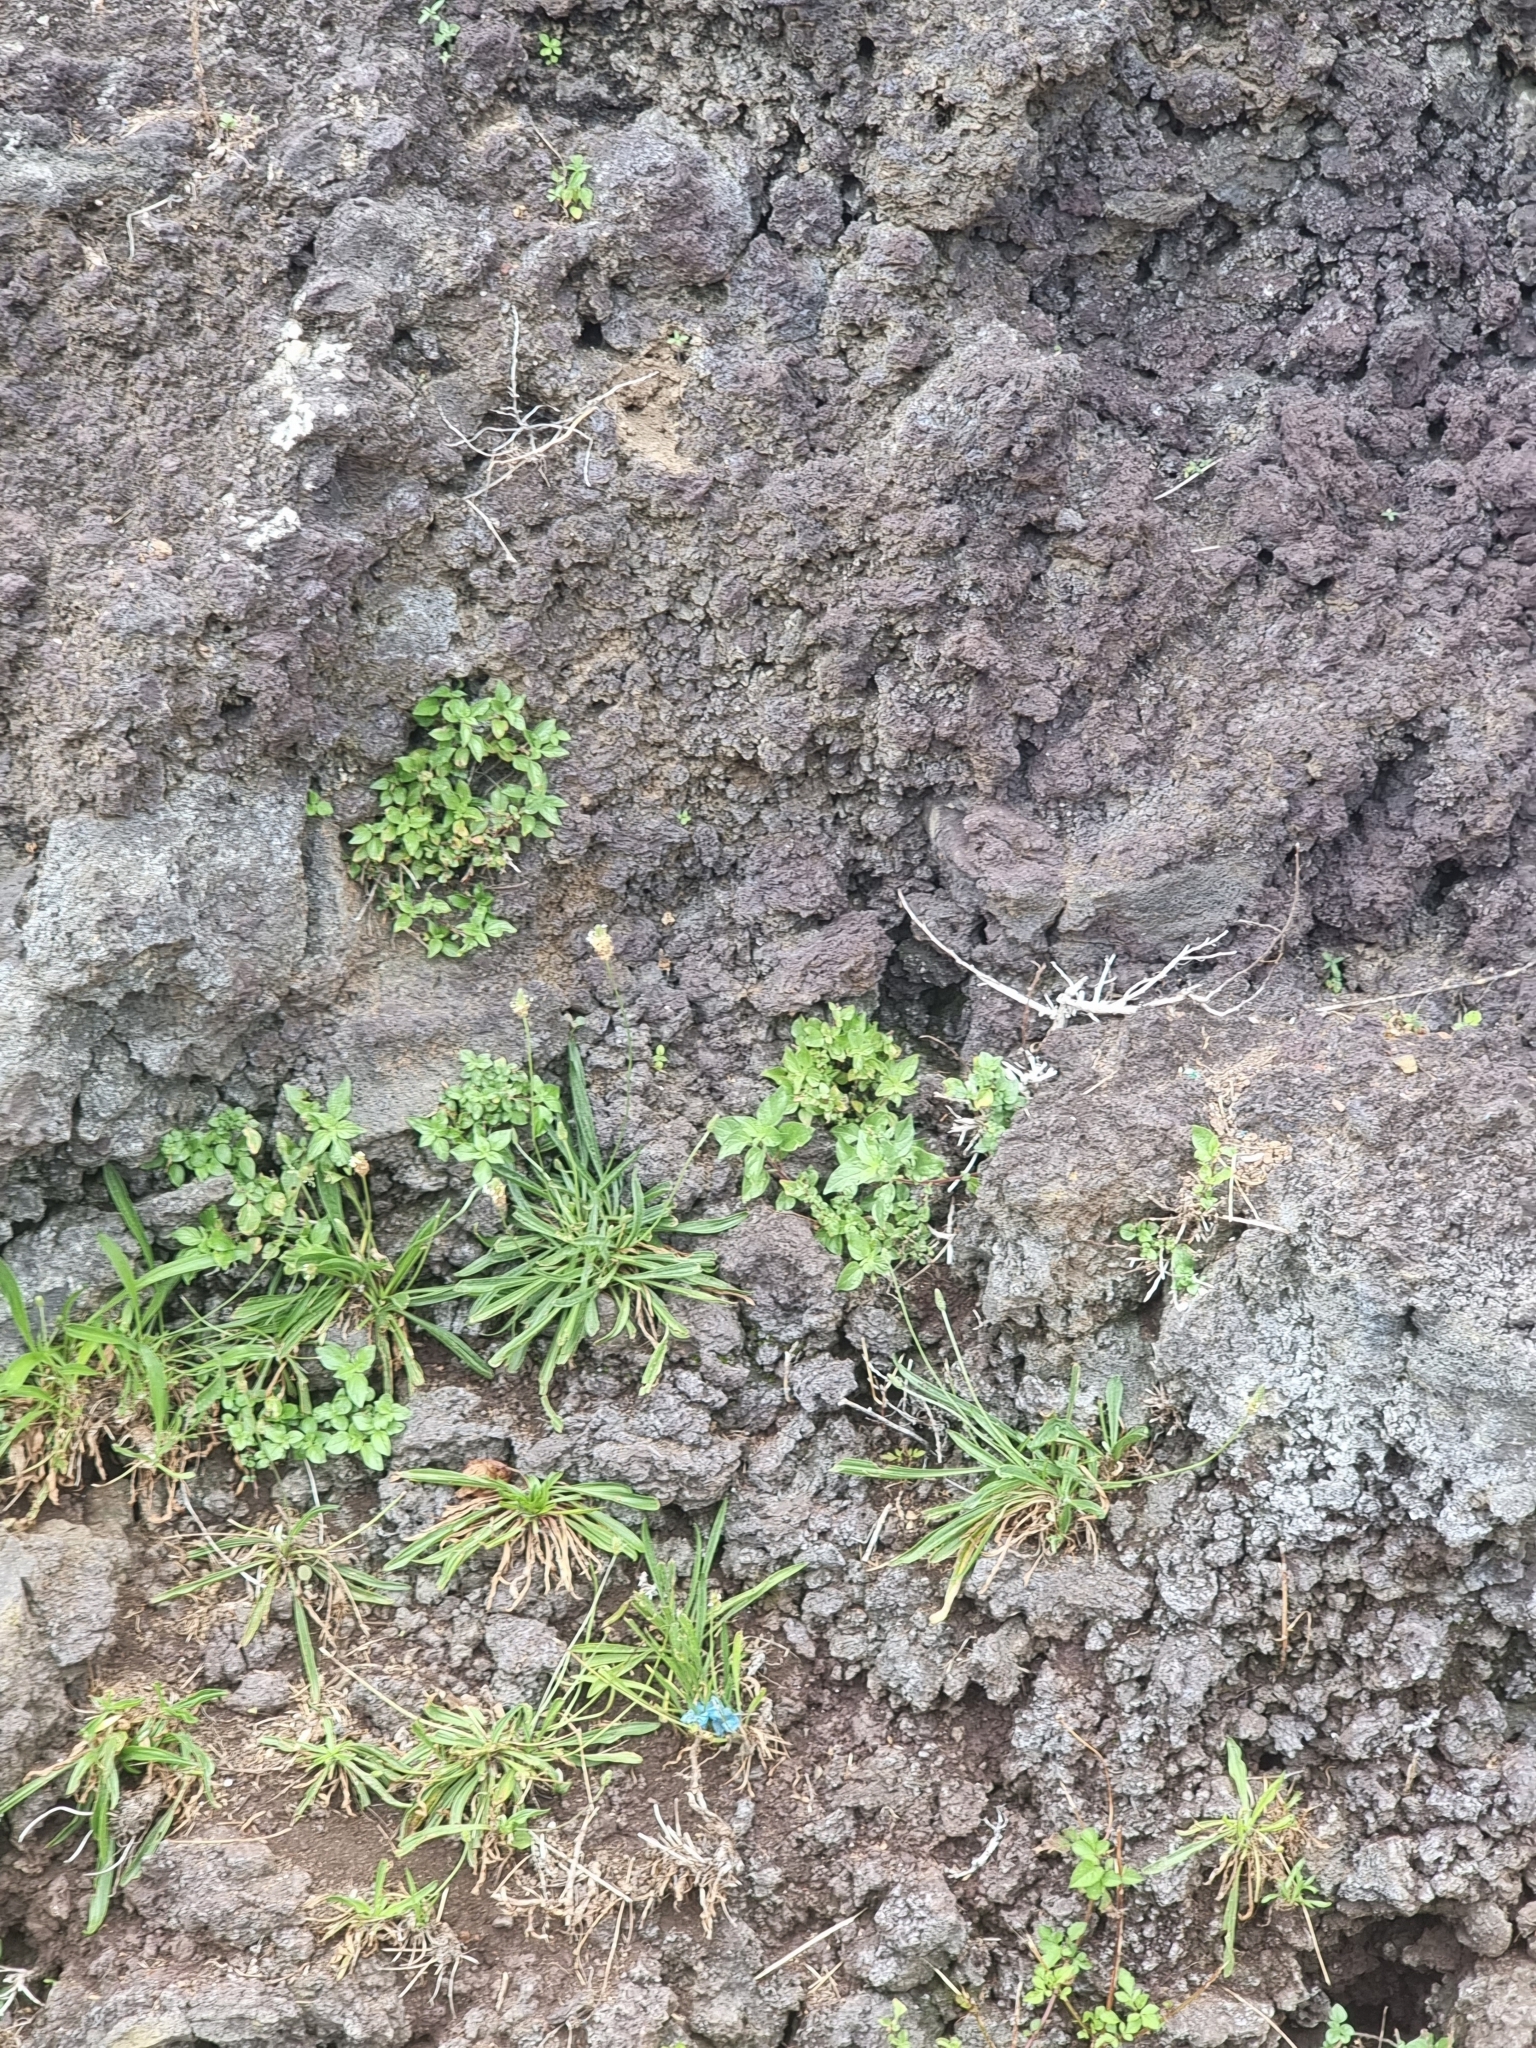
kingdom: Plantae
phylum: Tracheophyta
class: Magnoliopsida
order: Lamiales
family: Plantaginaceae
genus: Plantago
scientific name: Plantago lanceolata
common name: Ribwort plantain
